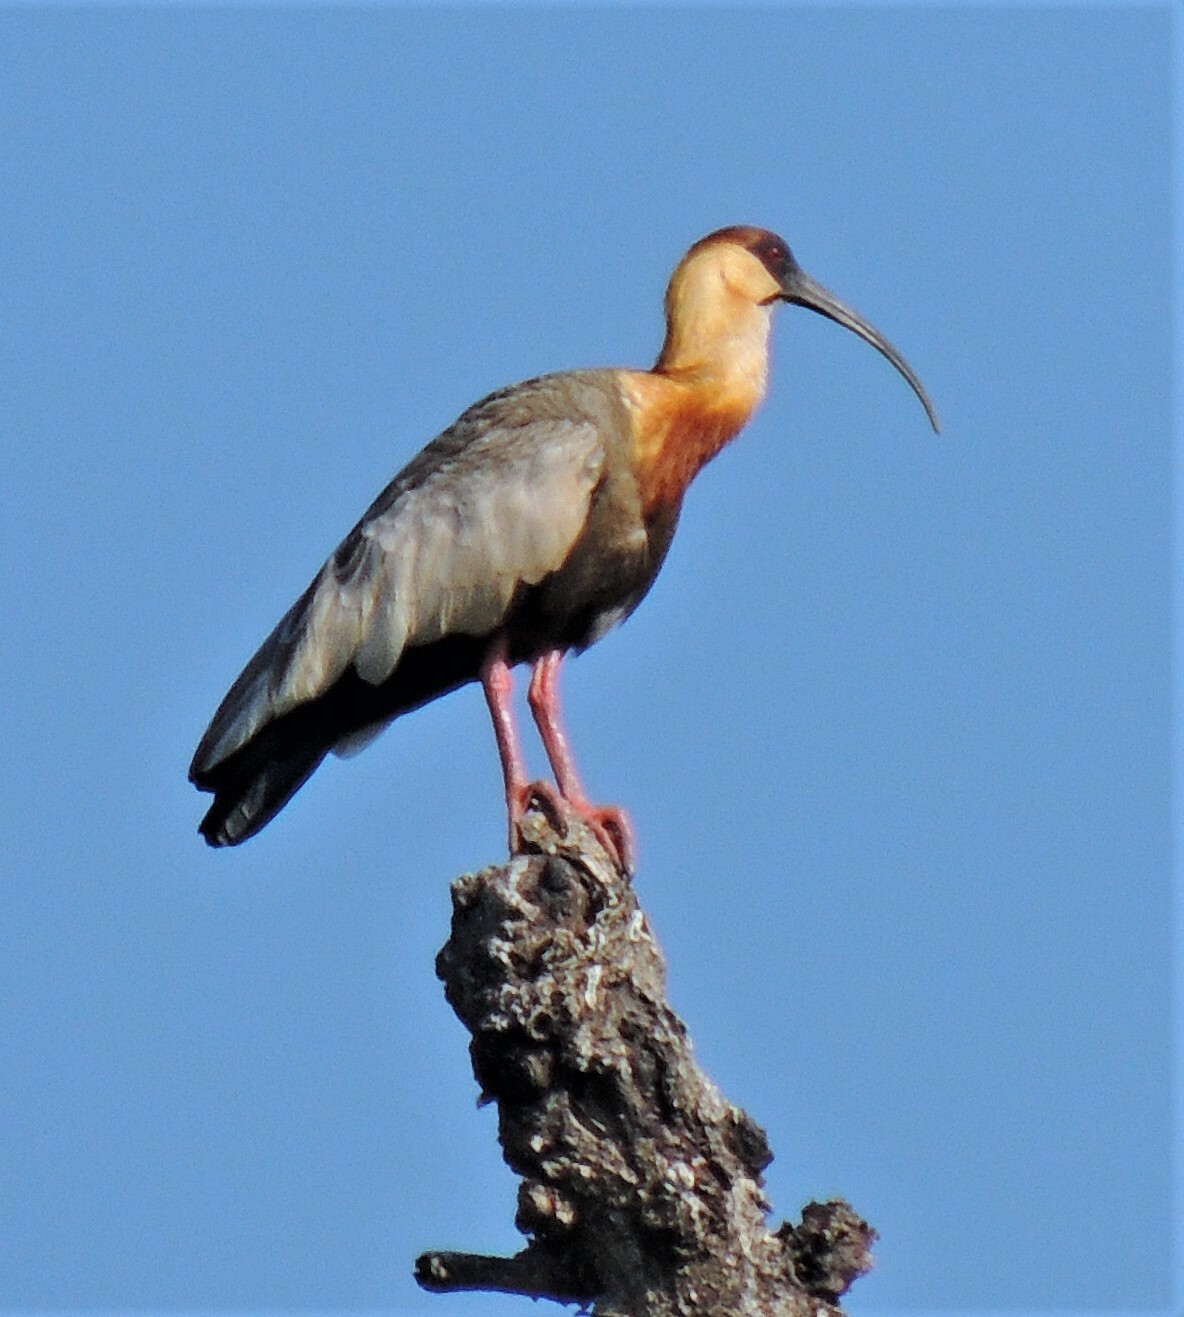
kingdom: Animalia
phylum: Chordata
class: Aves
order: Pelecaniformes
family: Threskiornithidae
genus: Theristicus
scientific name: Theristicus caudatus
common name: Buff-necked ibis
